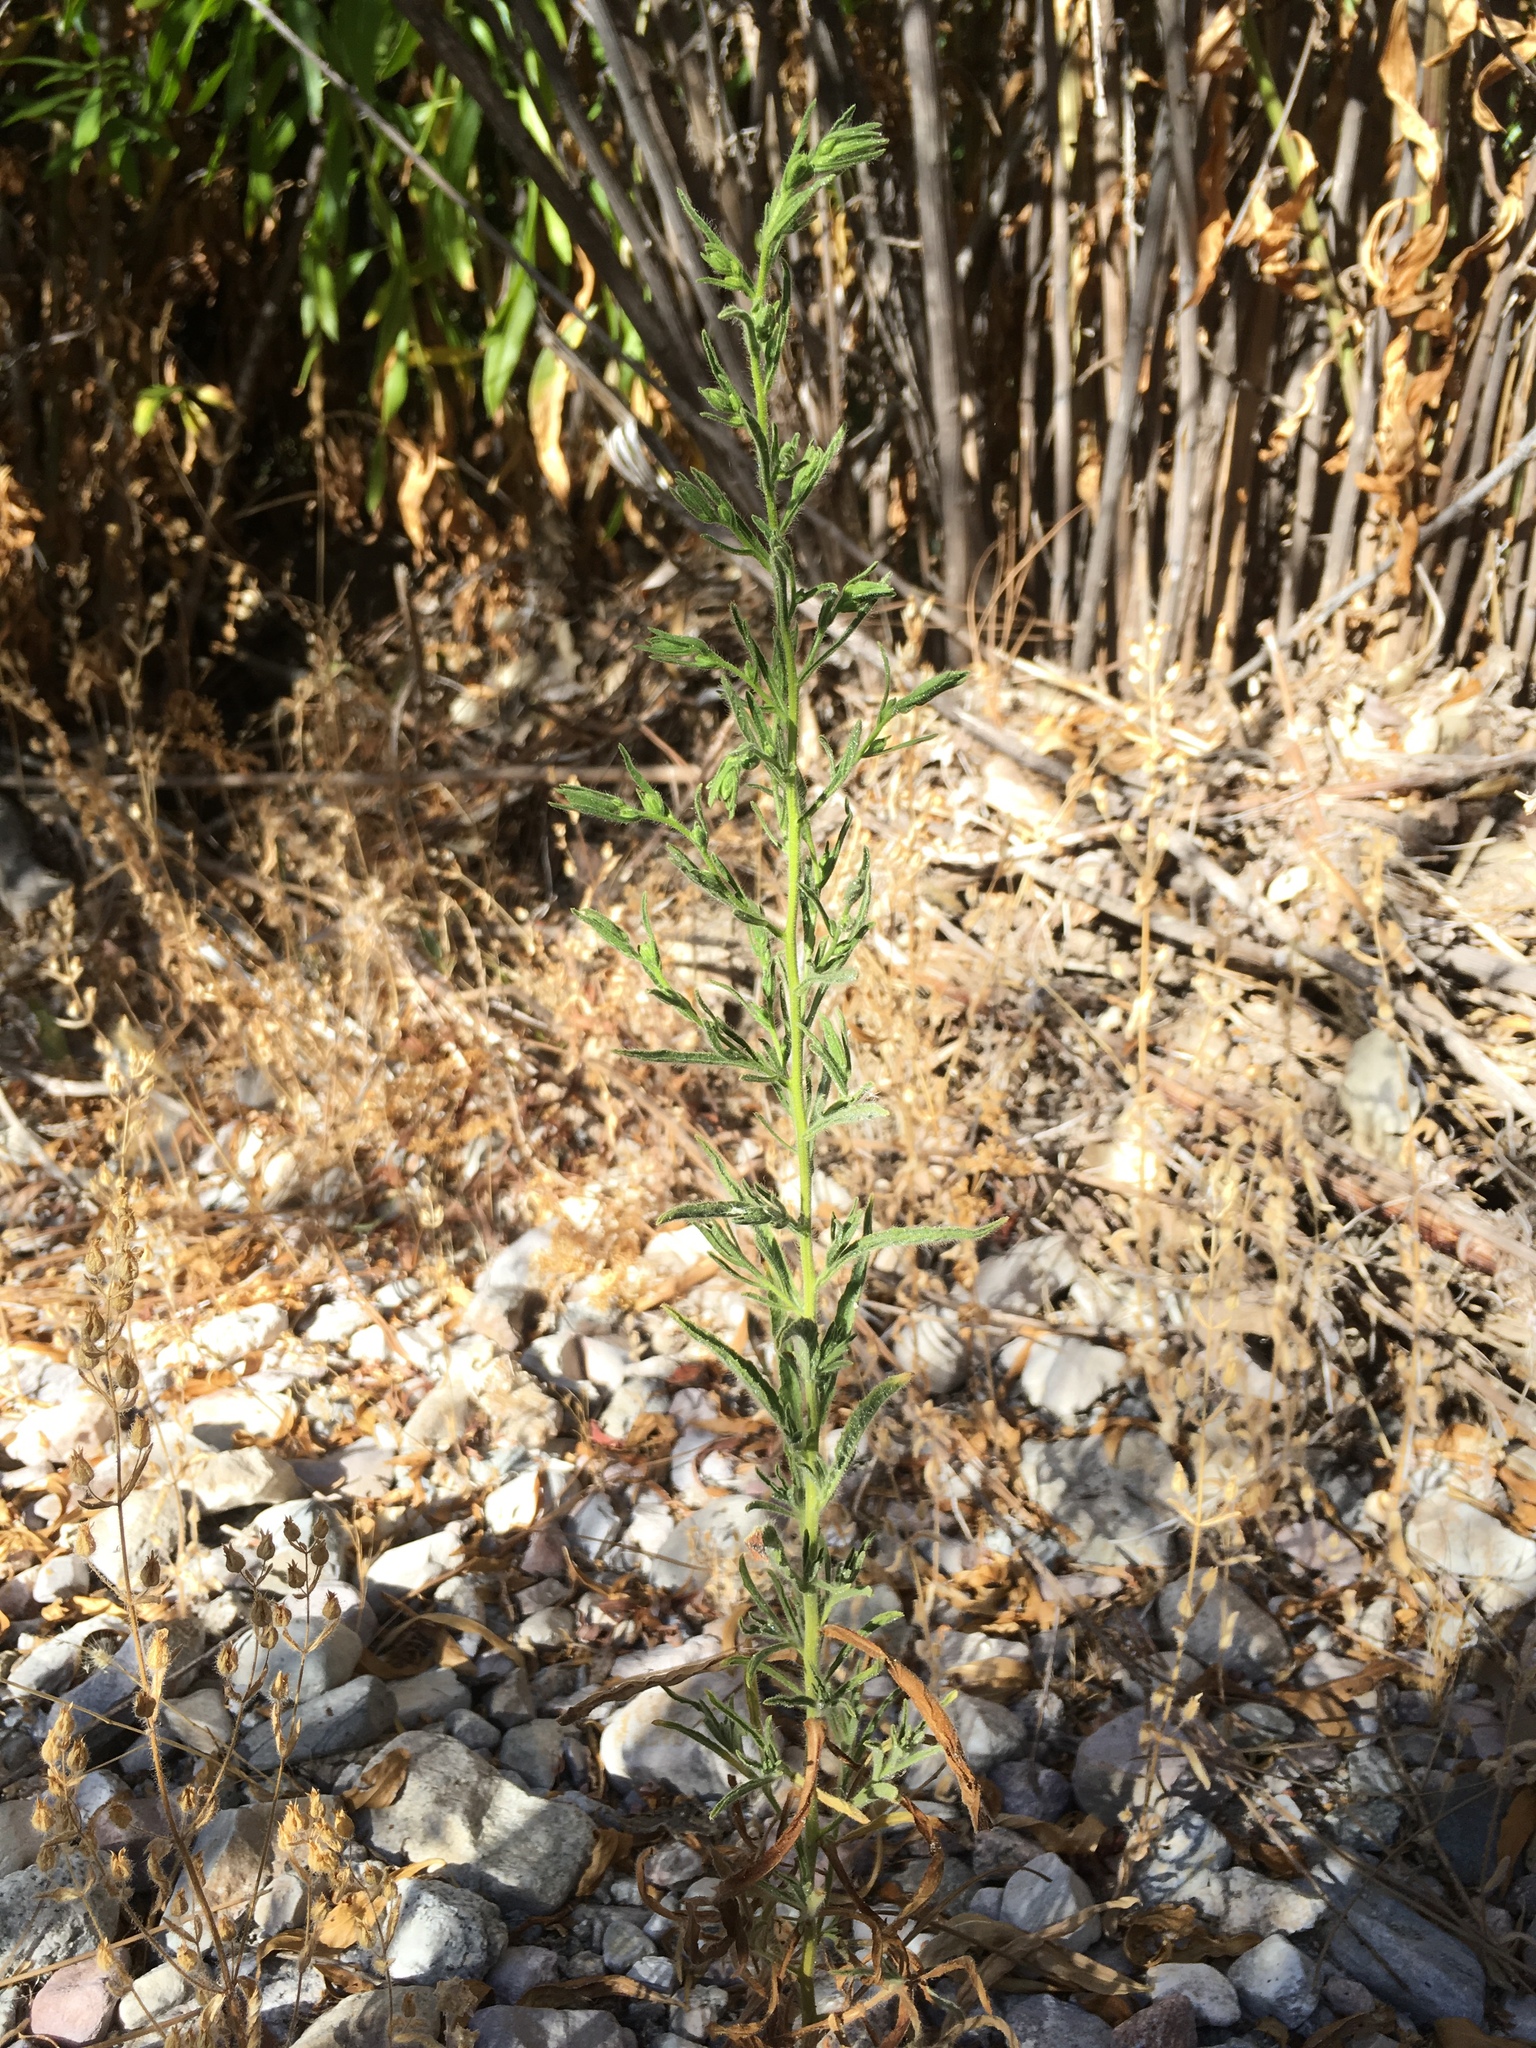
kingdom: Plantae
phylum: Tracheophyta
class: Magnoliopsida
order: Asterales
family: Asteraceae
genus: Dittrichia
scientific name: Dittrichia graveolens
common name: Stinking fleabane
